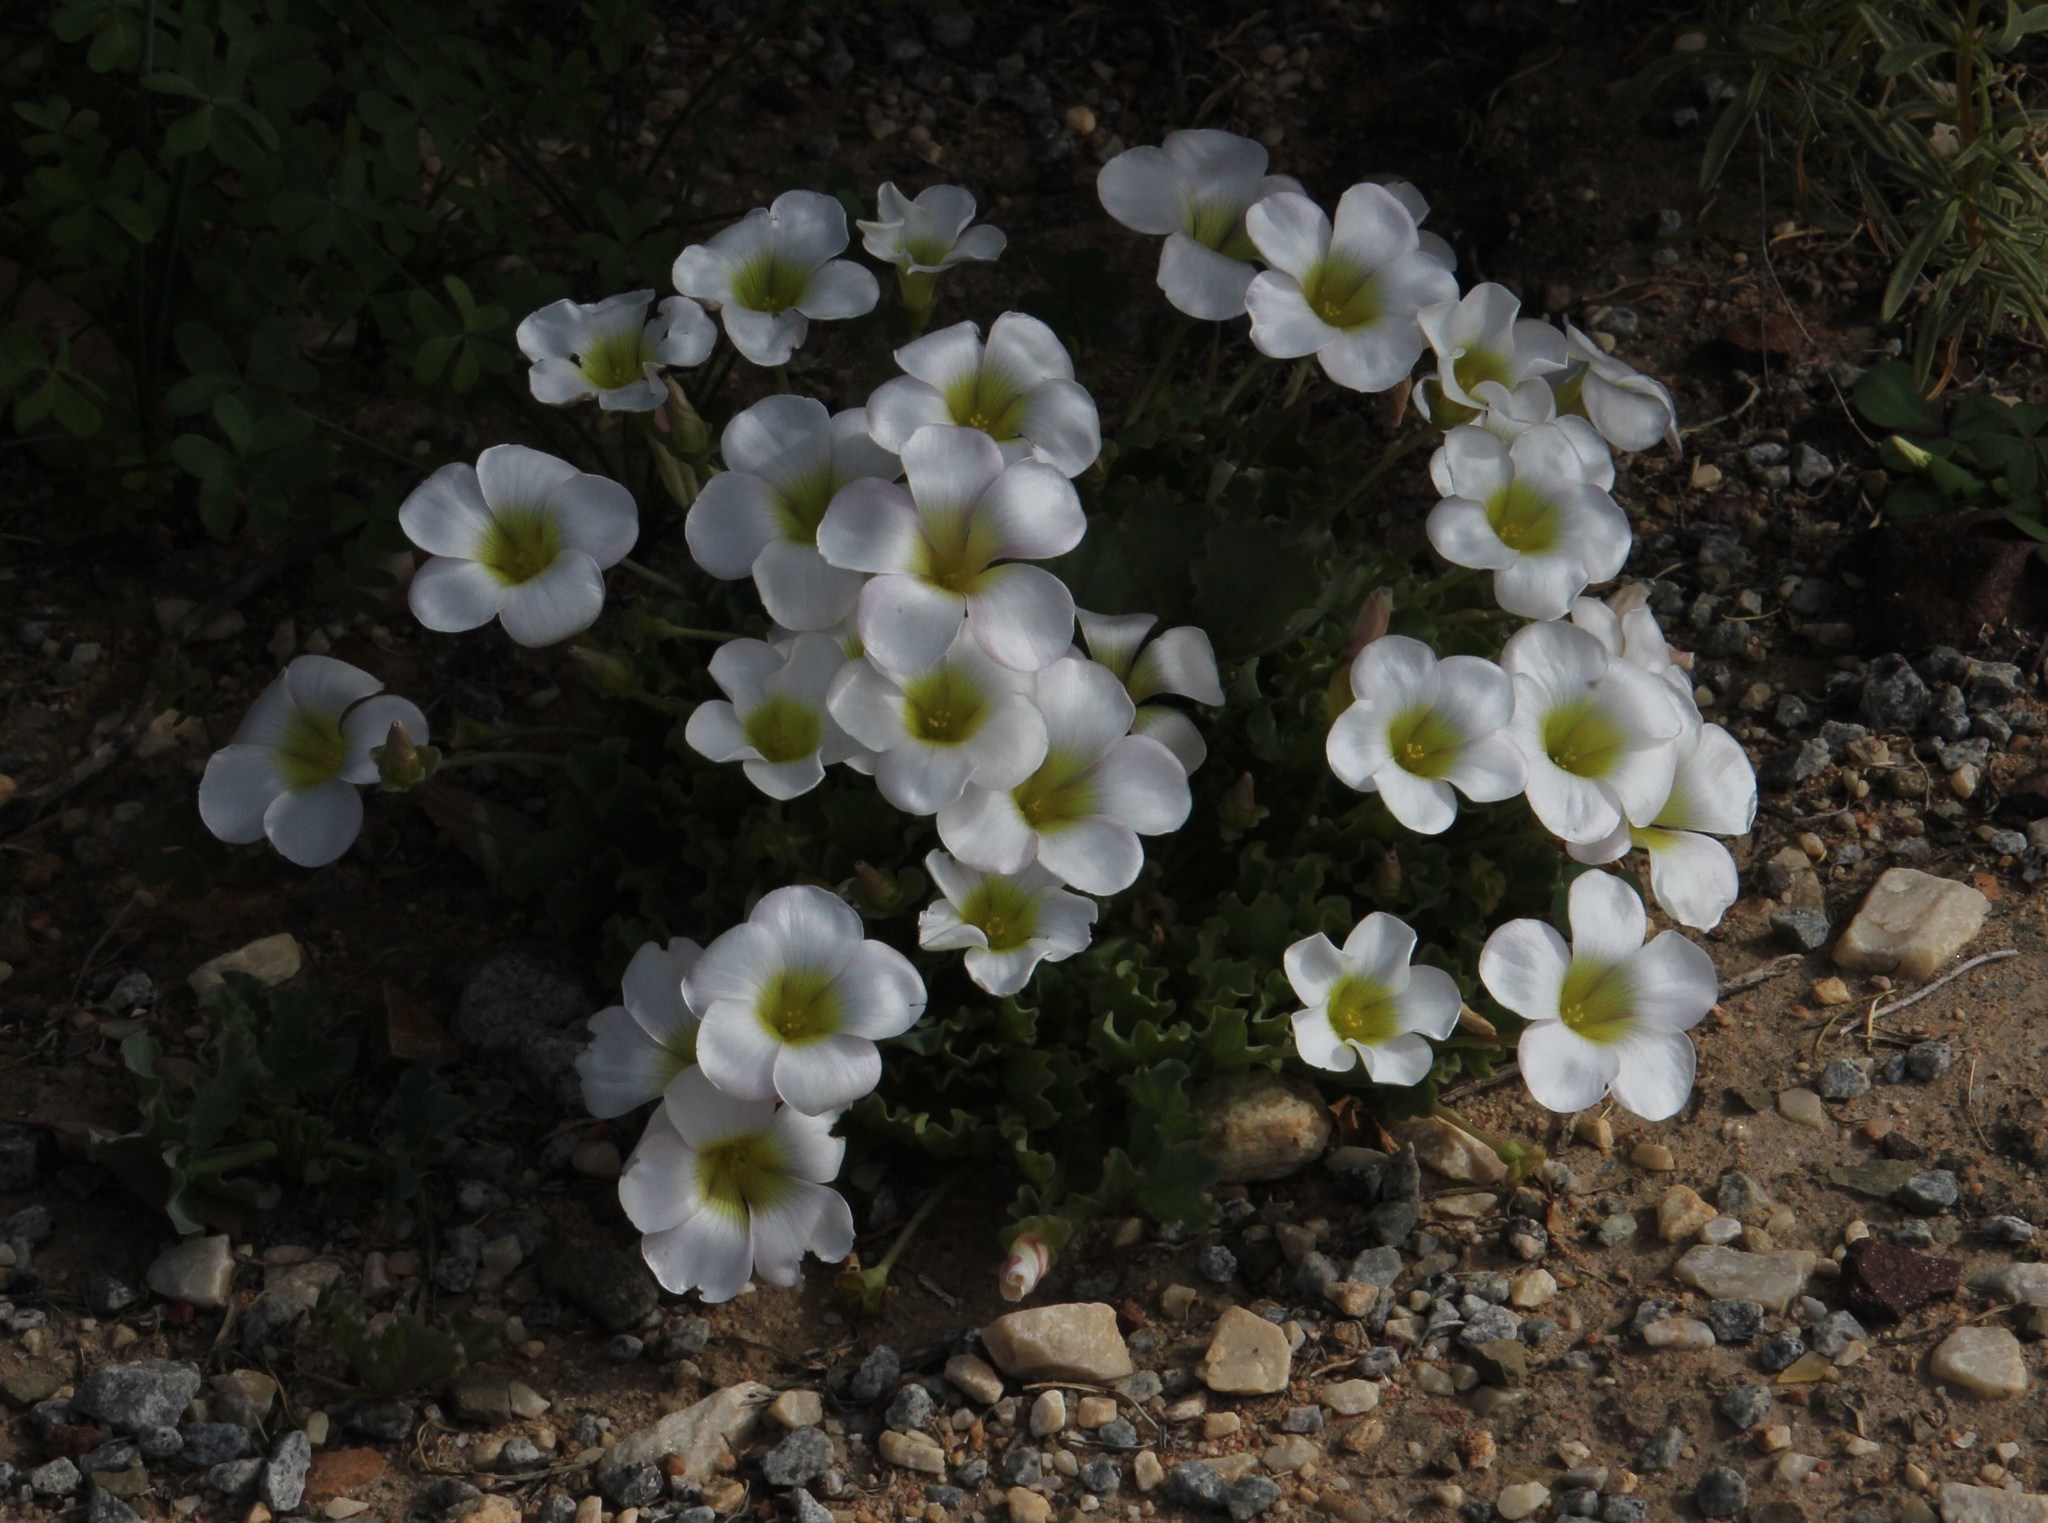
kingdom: Plantae
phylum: Tracheophyta
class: Magnoliopsida
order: Oxalidales
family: Oxalidaceae
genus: Oxalis
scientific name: Oxalis flava
